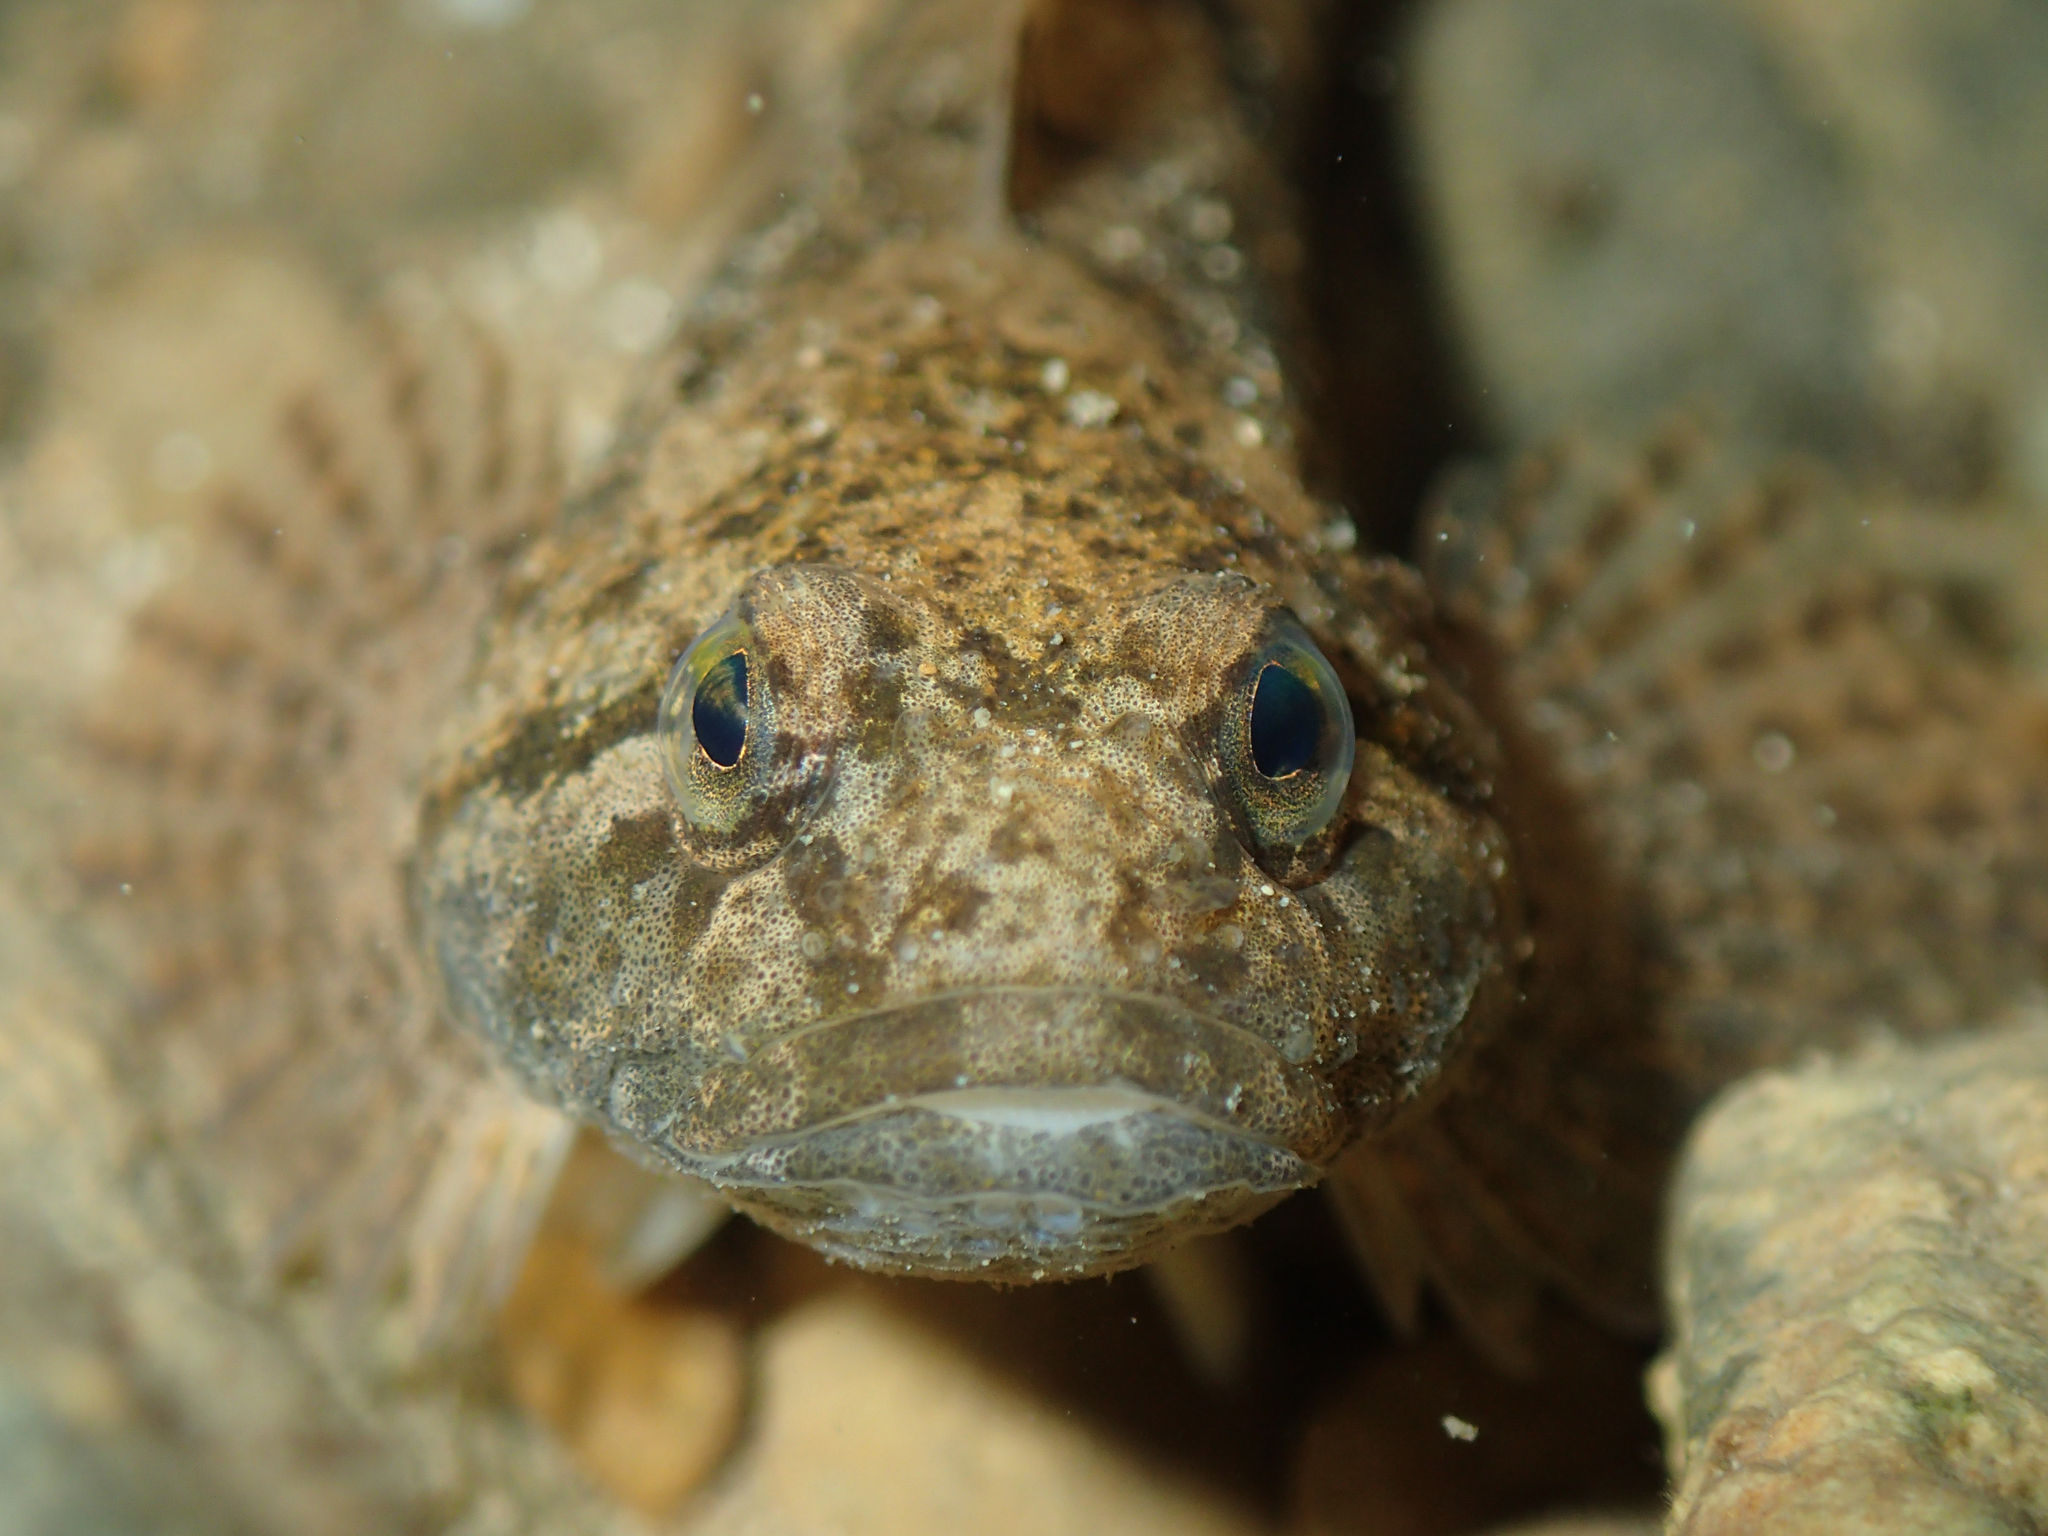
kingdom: Animalia
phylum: Chordata
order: Scorpaeniformes
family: Cottidae
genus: Cottus
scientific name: Cottus gobio
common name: Bullhead
